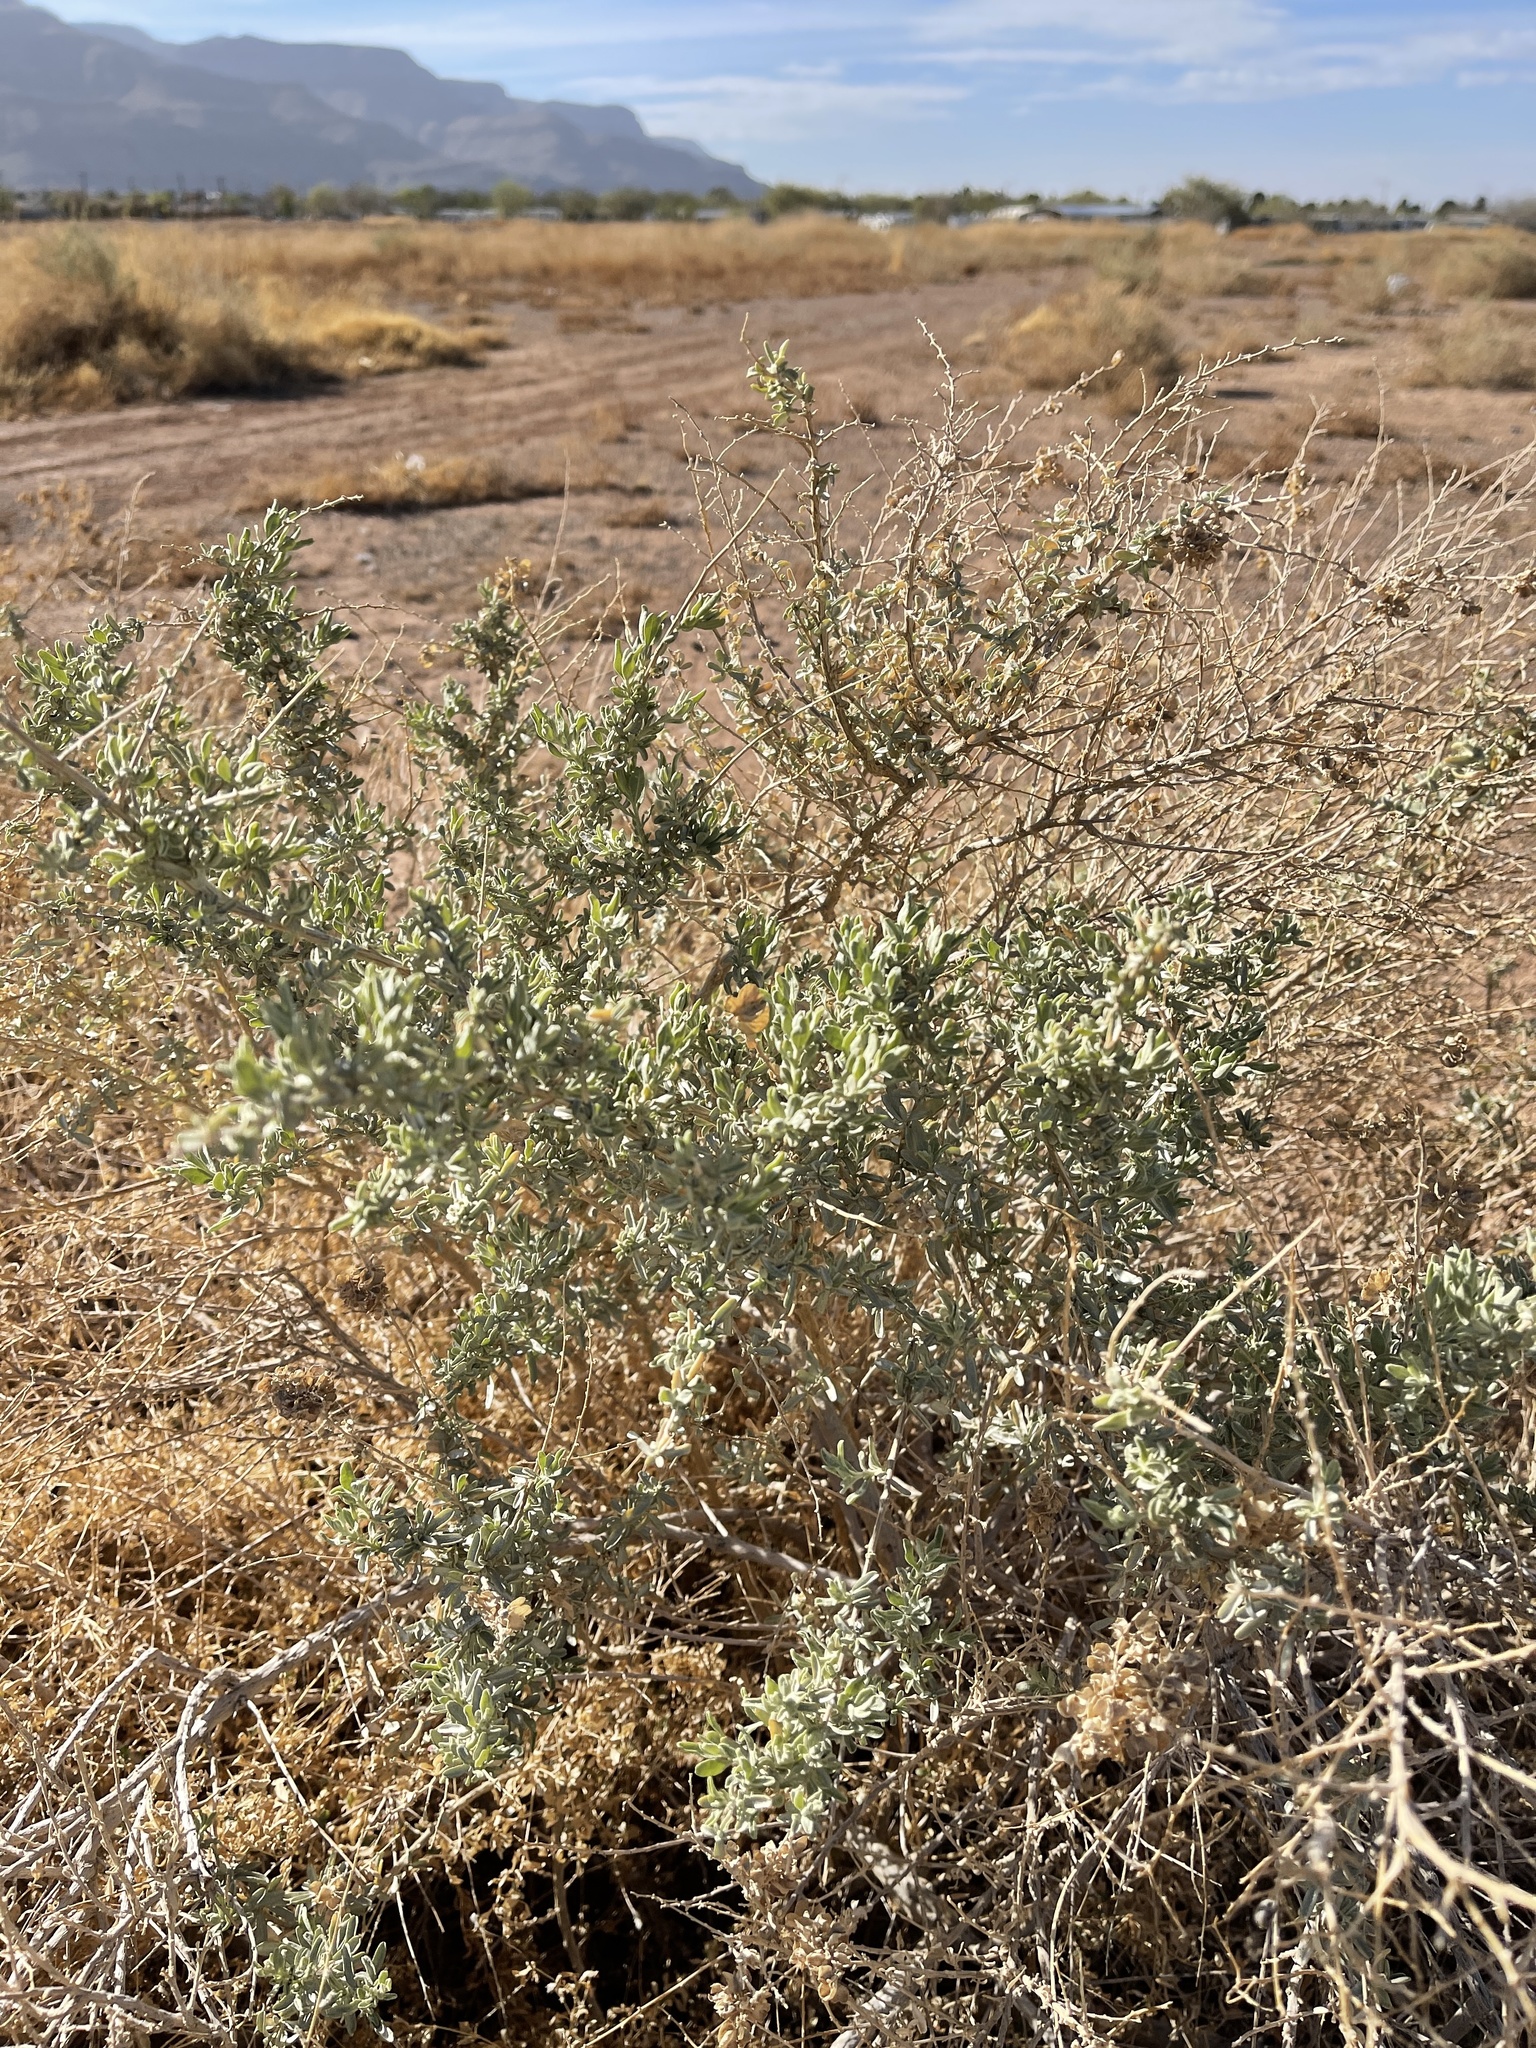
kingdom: Plantae
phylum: Tracheophyta
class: Magnoliopsida
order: Caryophyllales
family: Amaranthaceae
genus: Atriplex
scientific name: Atriplex canescens
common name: Four-wing saltbush
